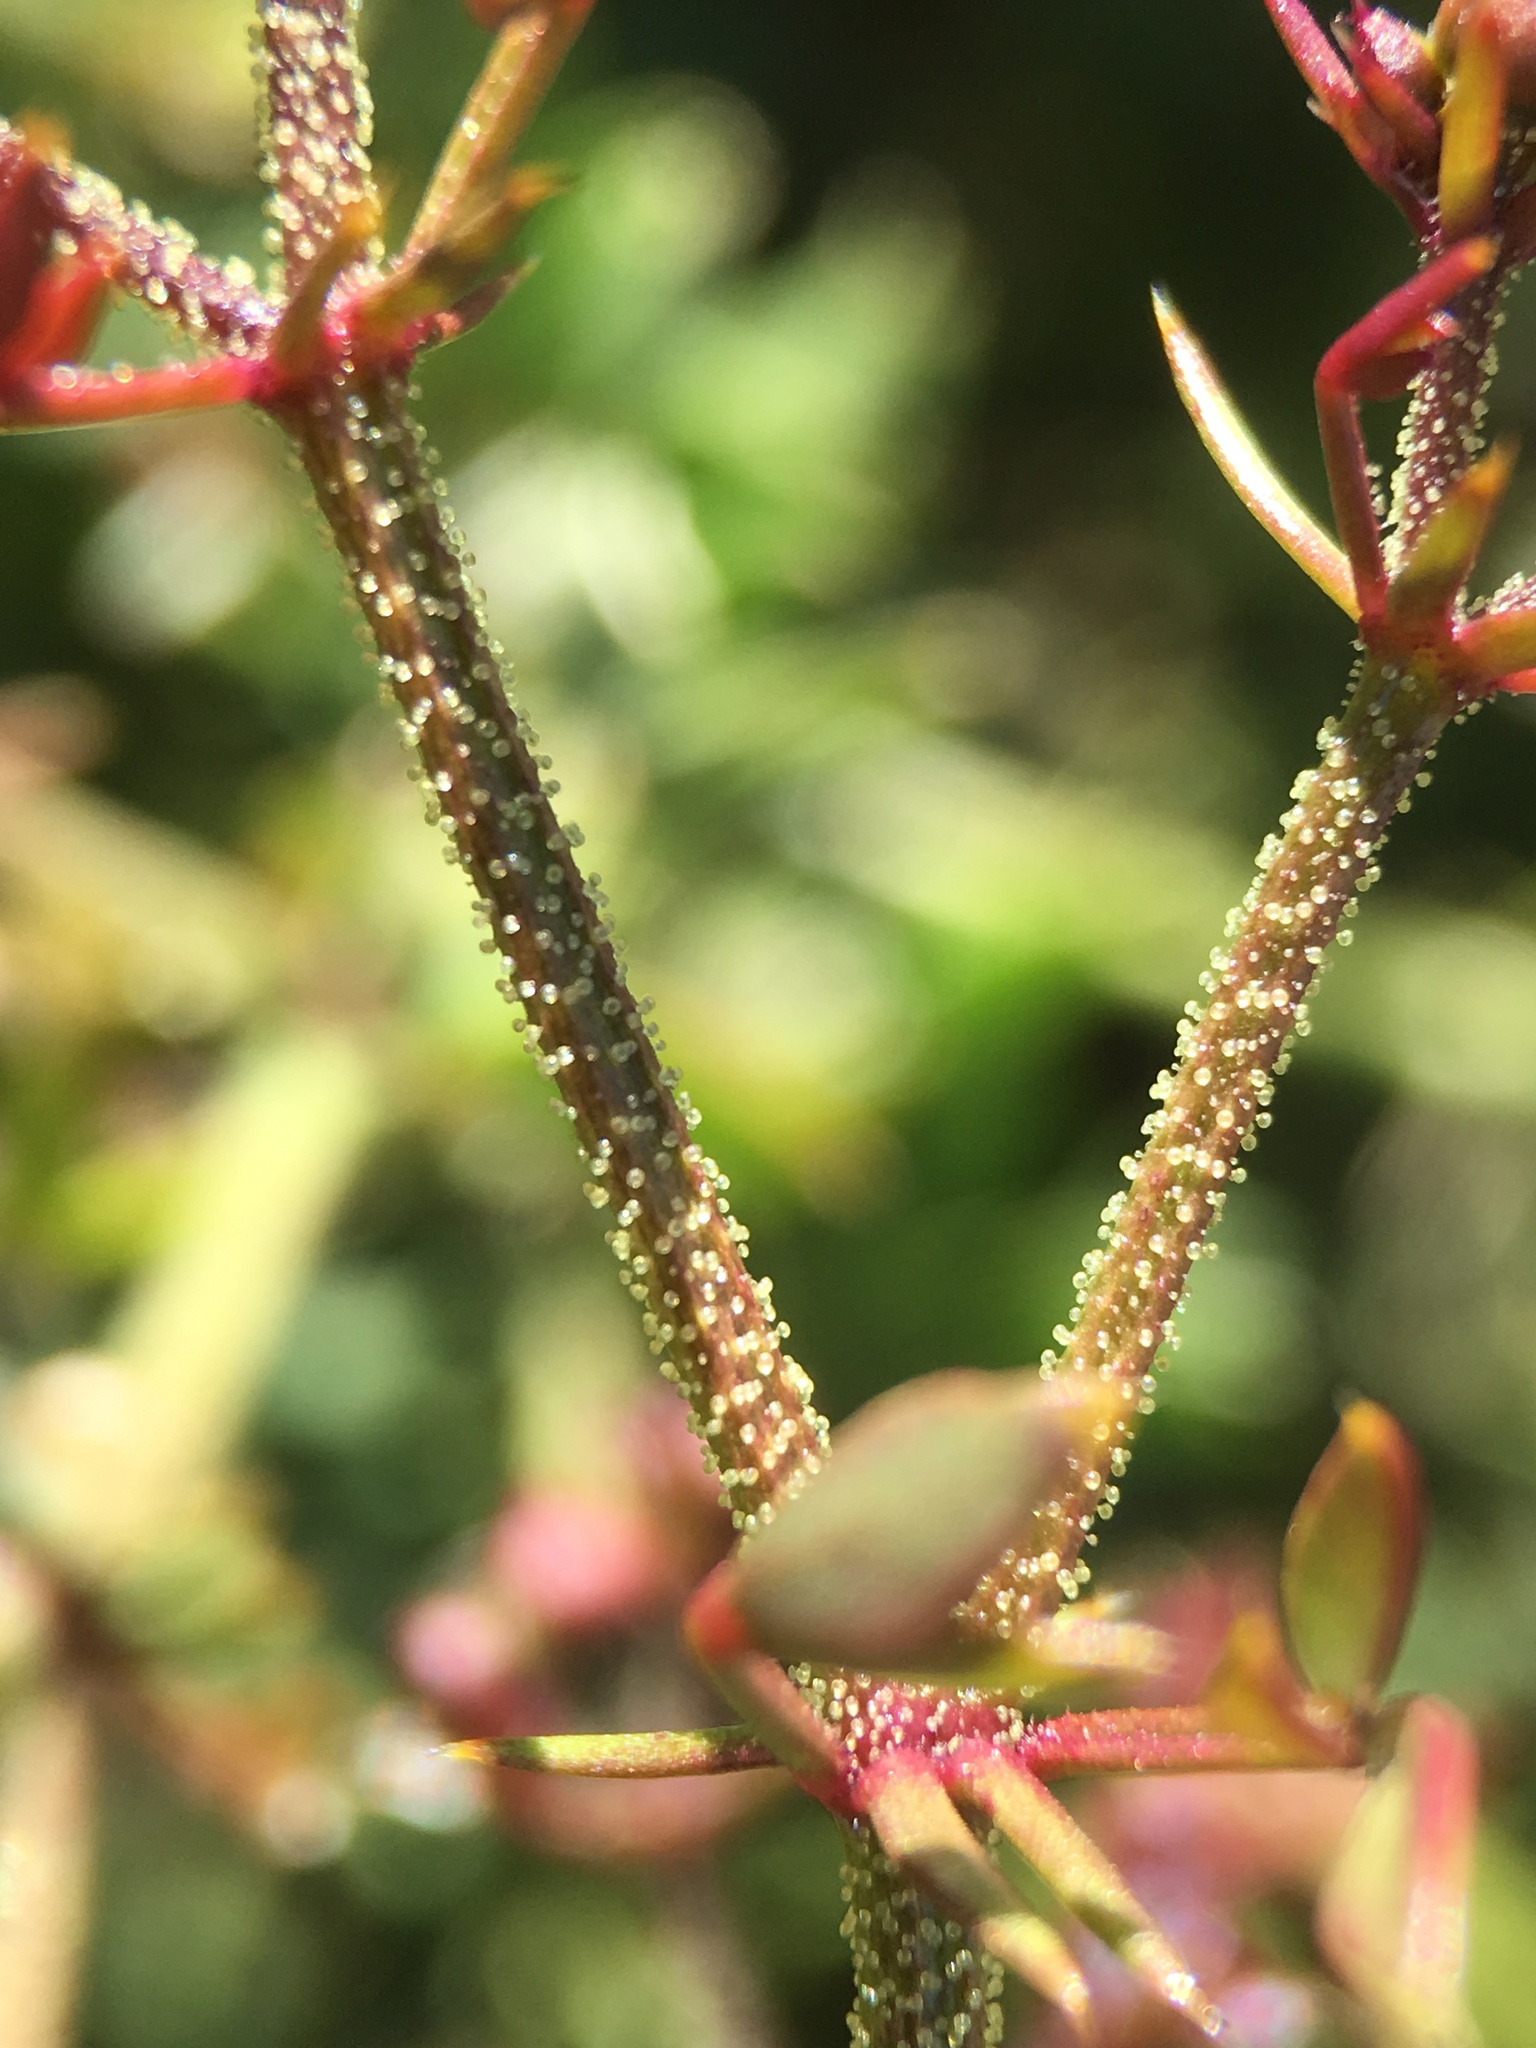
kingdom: Plantae
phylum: Tracheophyta
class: Magnoliopsida
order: Zygophyllales
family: Zygophyllaceae
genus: Fagonia
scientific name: Fagonia pachyacantha
